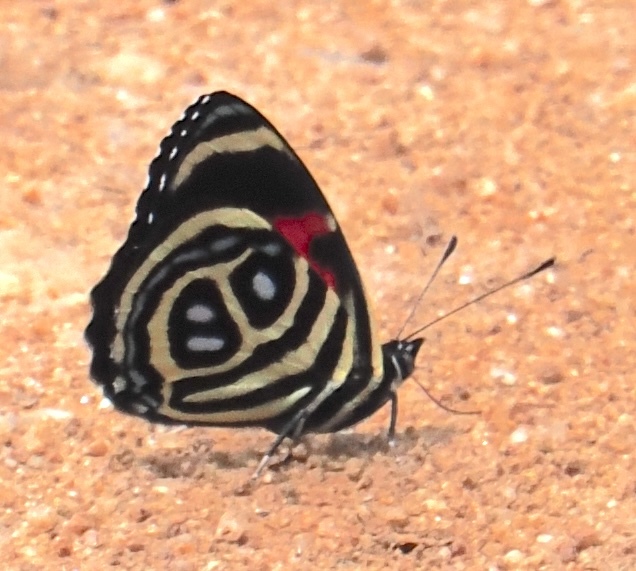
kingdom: Animalia
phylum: Arthropoda
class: Insecta
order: Lepidoptera
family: Nymphalidae
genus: Catagramma
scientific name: Catagramma pyracmon
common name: Google-eyed eighty-eight
